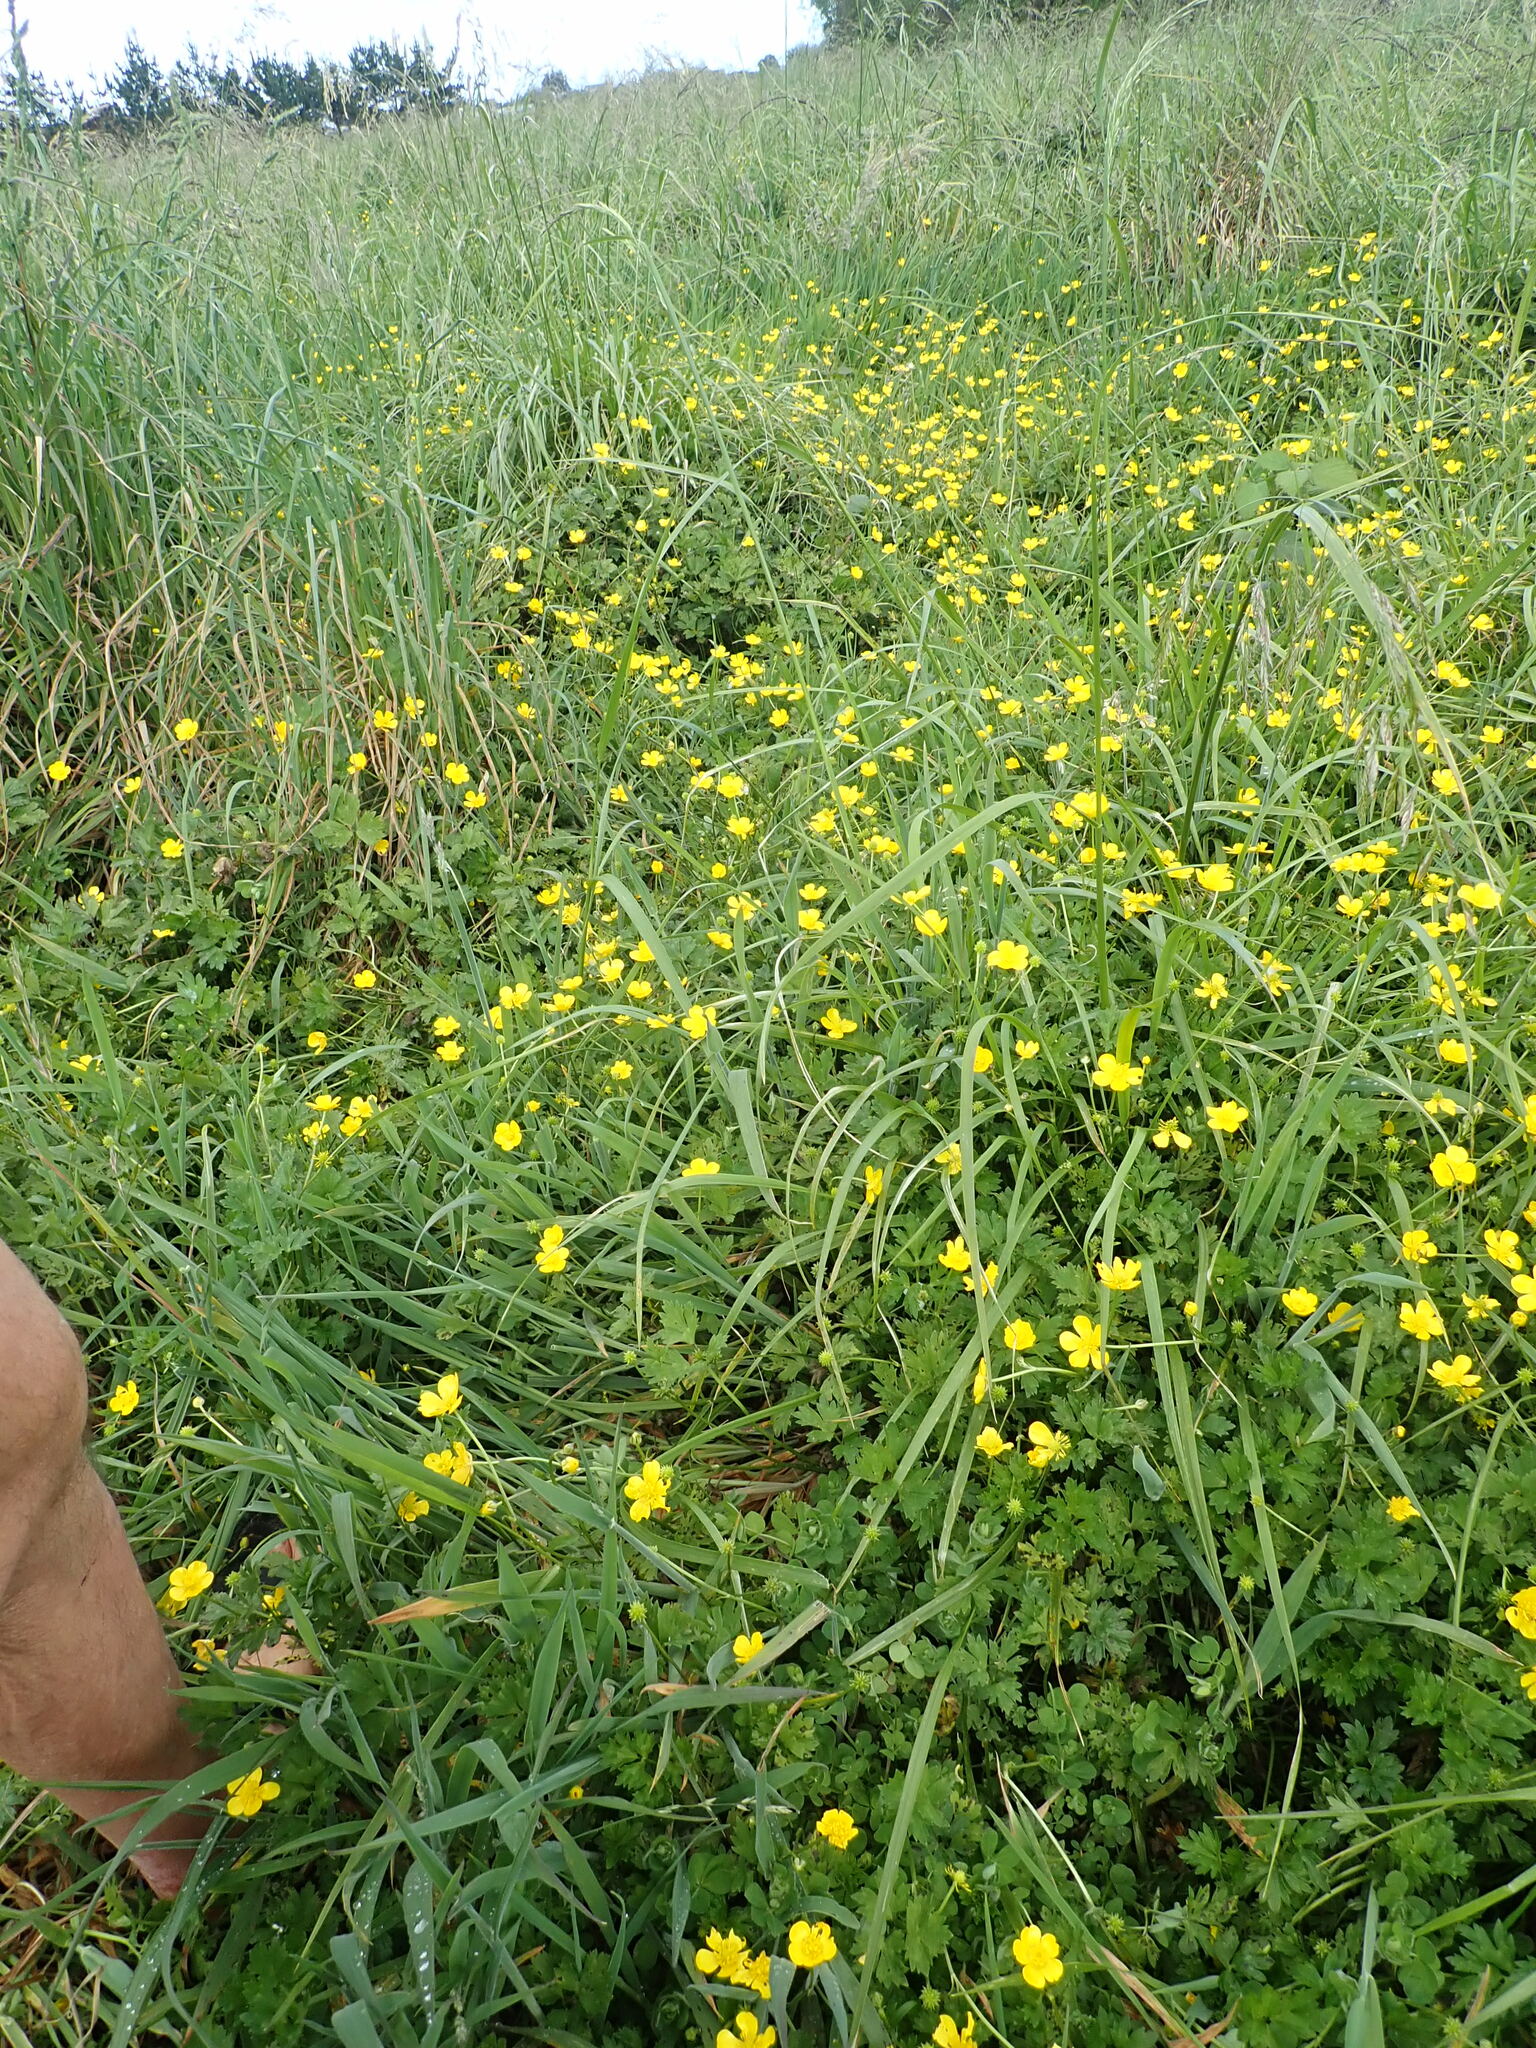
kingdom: Plantae
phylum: Tracheophyta
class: Magnoliopsida
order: Ranunculales
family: Ranunculaceae
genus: Ranunculus
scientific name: Ranunculus repens
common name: Creeping buttercup
